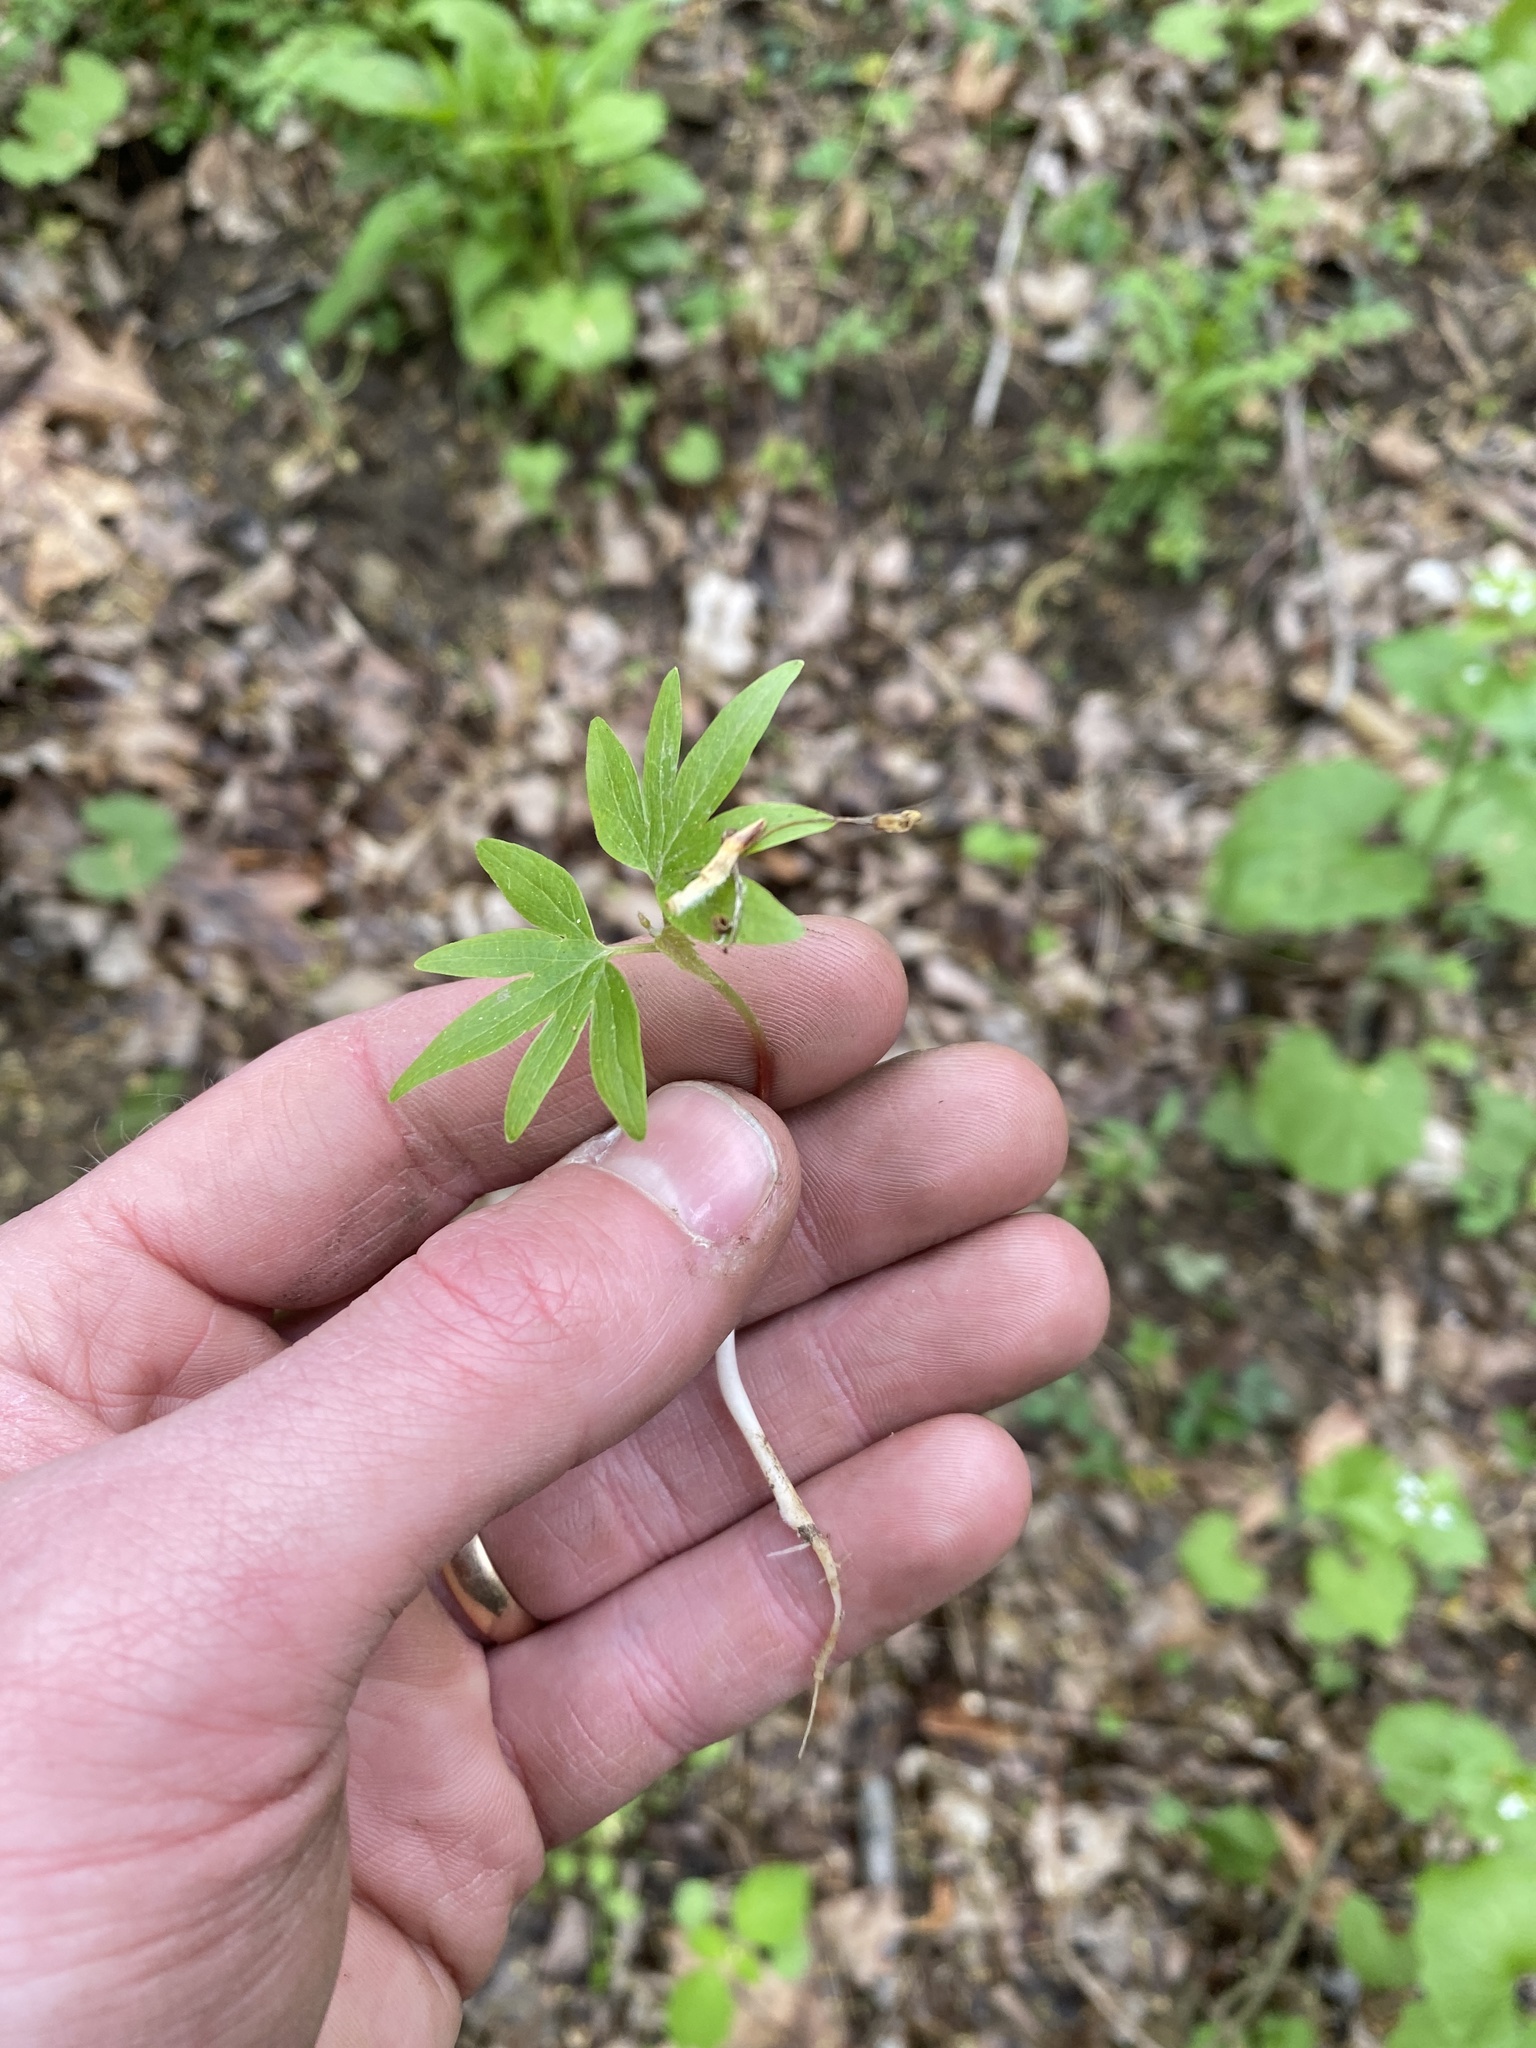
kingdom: Plantae
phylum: Tracheophyta
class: Magnoliopsida
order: Malvales
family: Malvaceae
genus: Tilia
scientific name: Tilia americana
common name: Basswood
